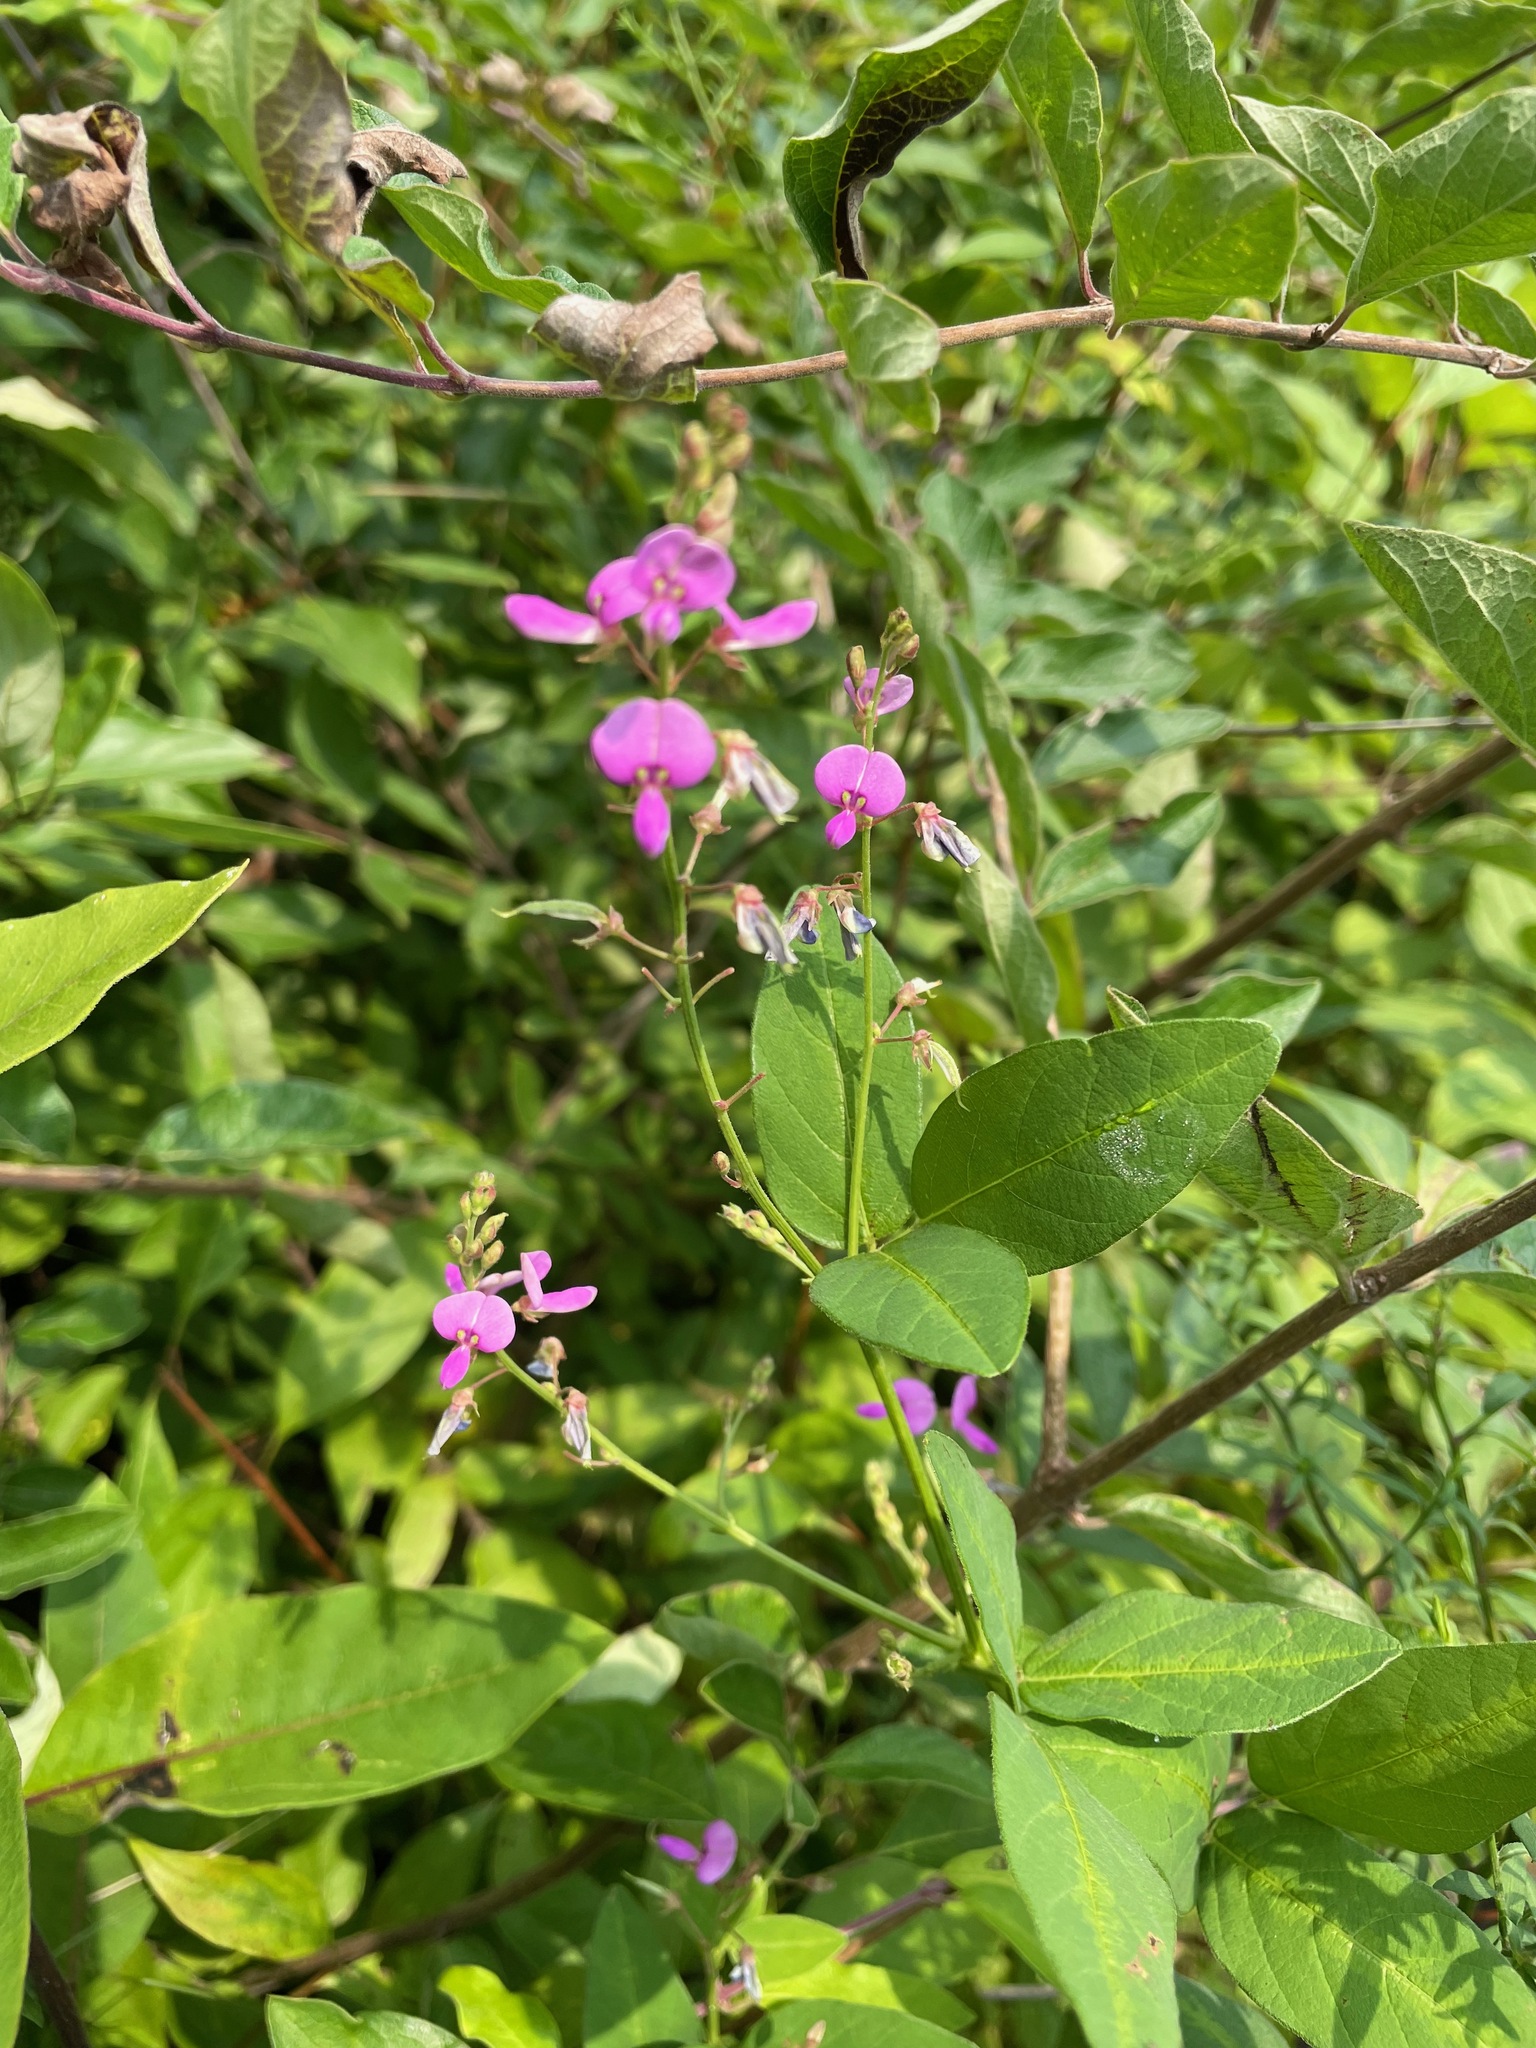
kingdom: Plantae
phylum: Tracheophyta
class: Magnoliopsida
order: Fabales
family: Fabaceae
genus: Desmodium
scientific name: Desmodium glabellum
